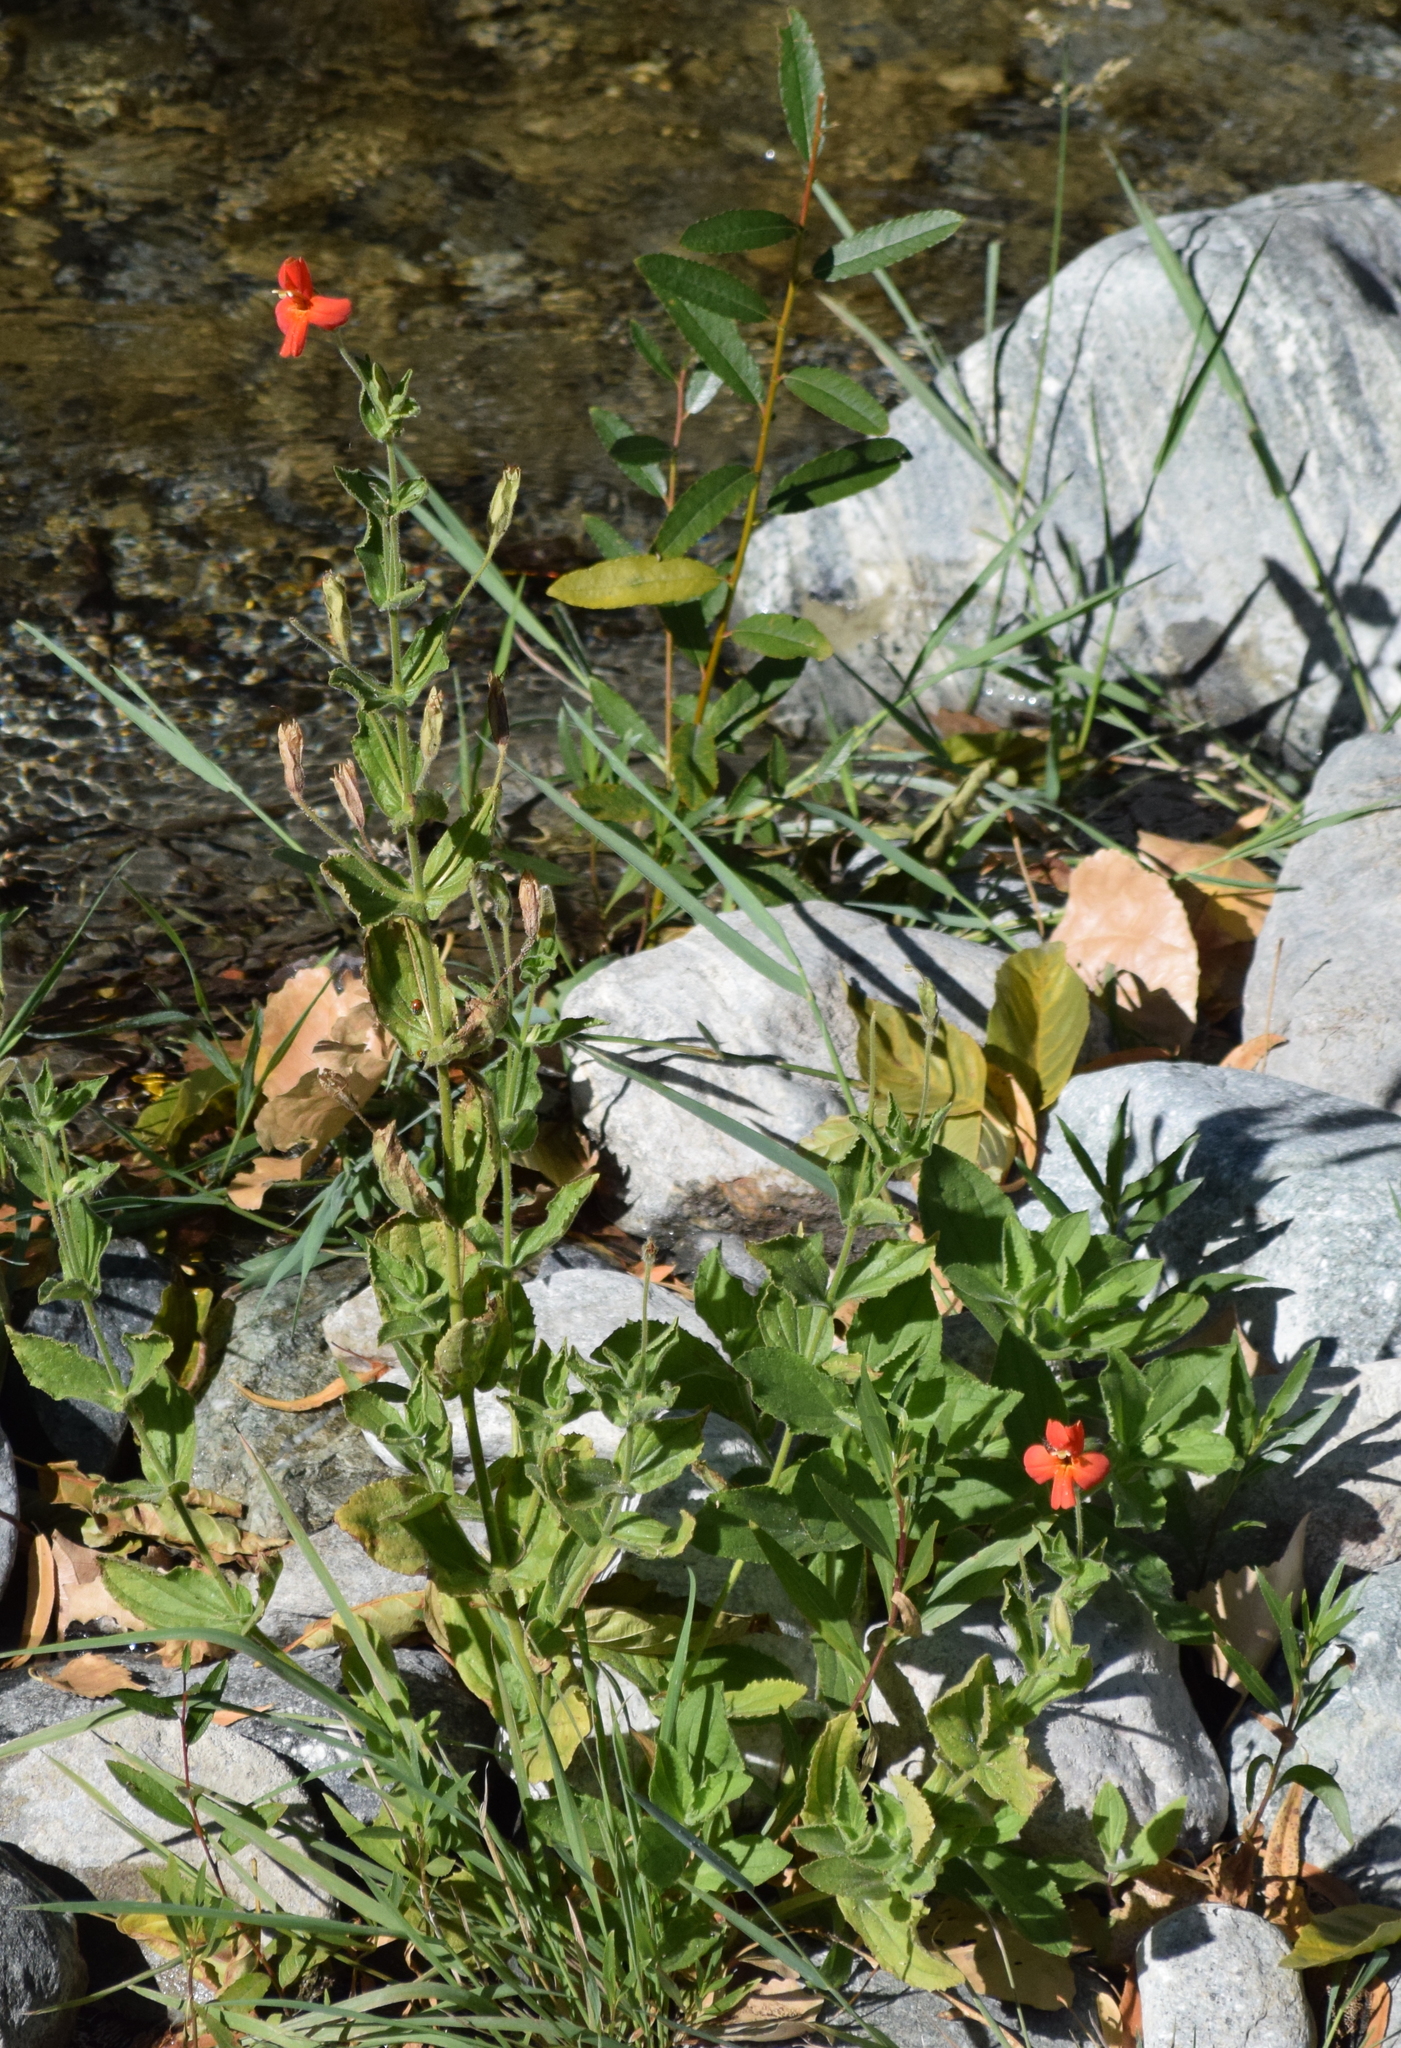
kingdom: Plantae
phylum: Tracheophyta
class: Magnoliopsida
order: Lamiales
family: Phrymaceae
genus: Erythranthe
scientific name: Erythranthe cardinalis
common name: Scarlet monkey-flower
